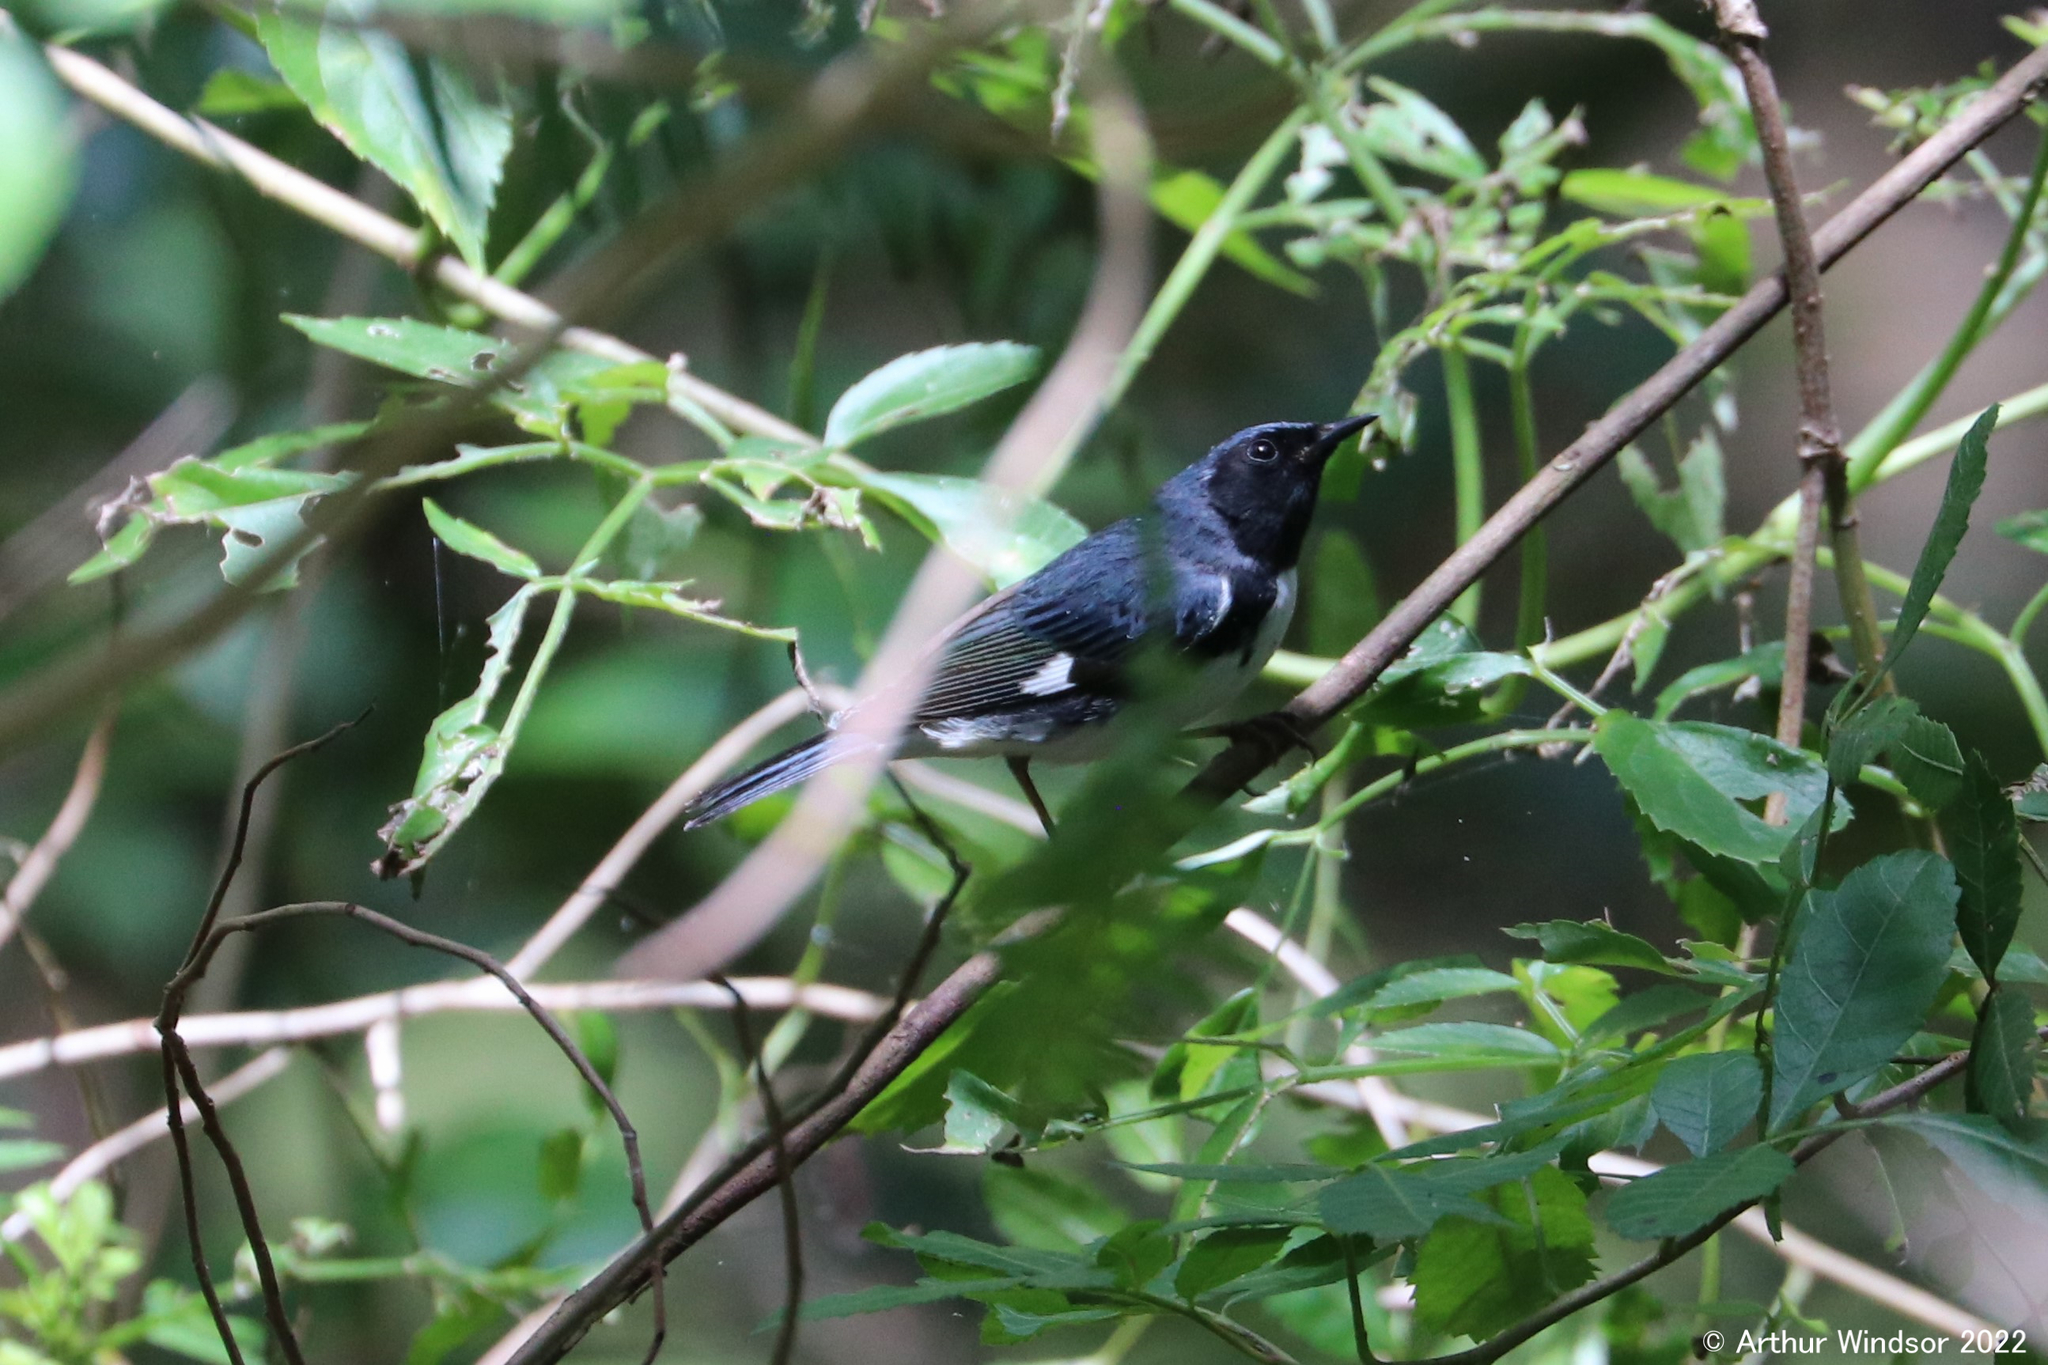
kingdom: Animalia
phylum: Chordata
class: Aves
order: Passeriformes
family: Parulidae
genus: Setophaga
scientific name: Setophaga caerulescens
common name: Black-throated blue warbler
